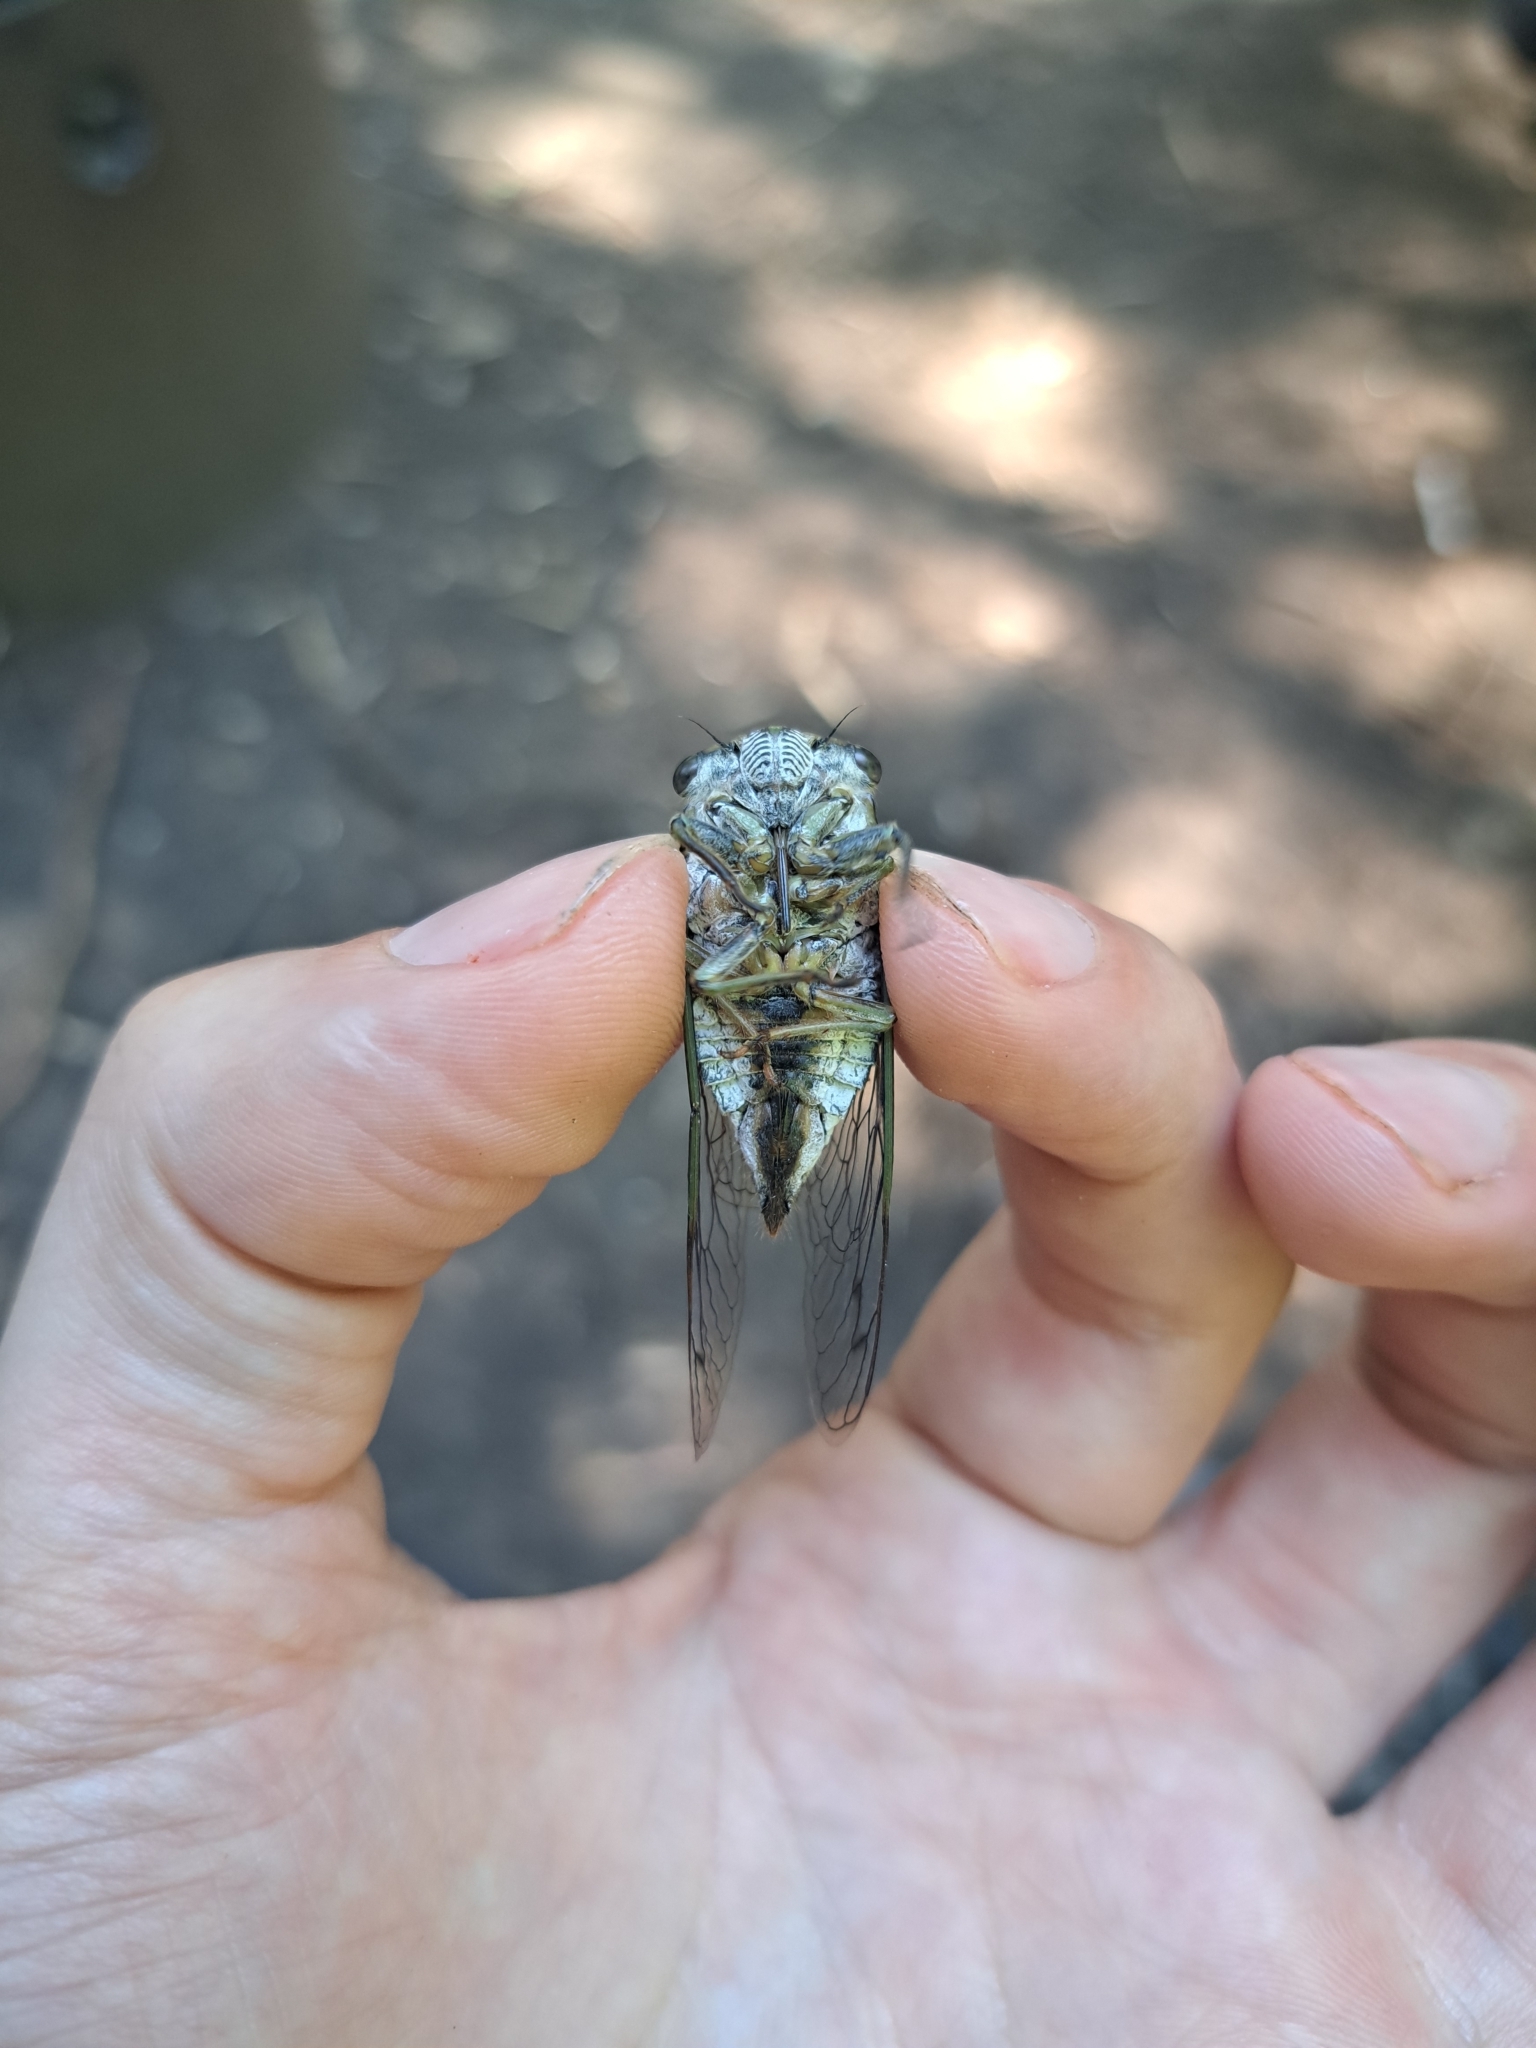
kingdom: Animalia
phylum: Arthropoda
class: Insecta
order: Hemiptera
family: Cicadidae
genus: Neotibicen
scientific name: Neotibicen canicularis
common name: God-day cicada
